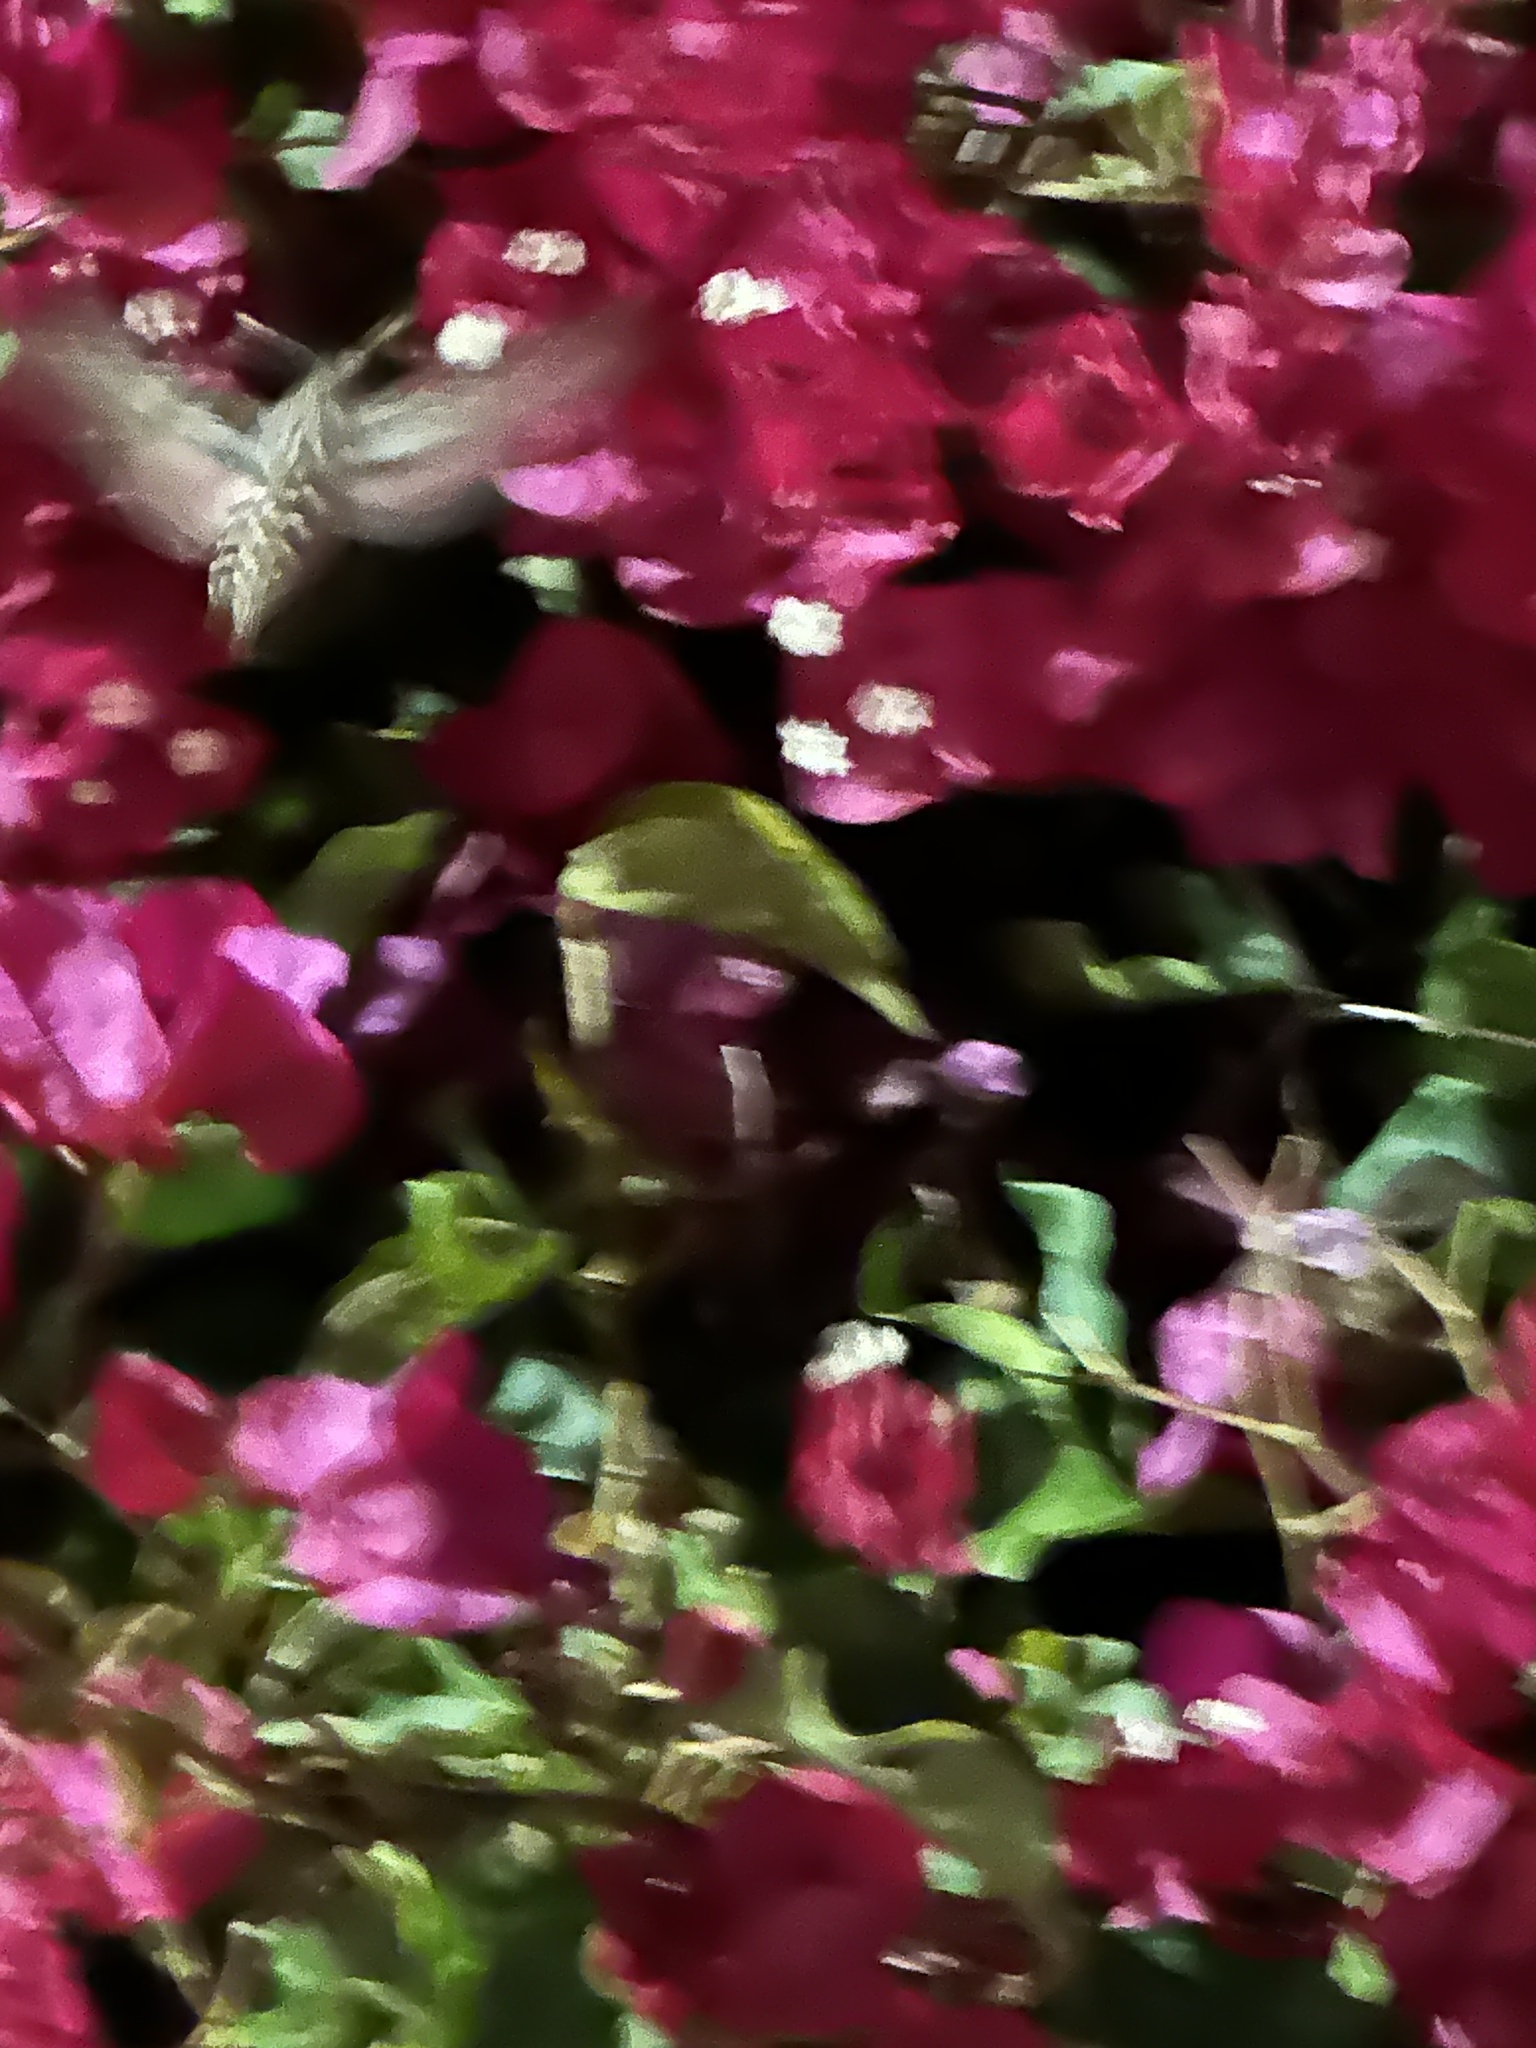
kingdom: Animalia
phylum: Arthropoda
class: Insecta
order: Lepidoptera
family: Sphingidae
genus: Hyles
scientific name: Hyles lineata
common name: White-lined sphinx
